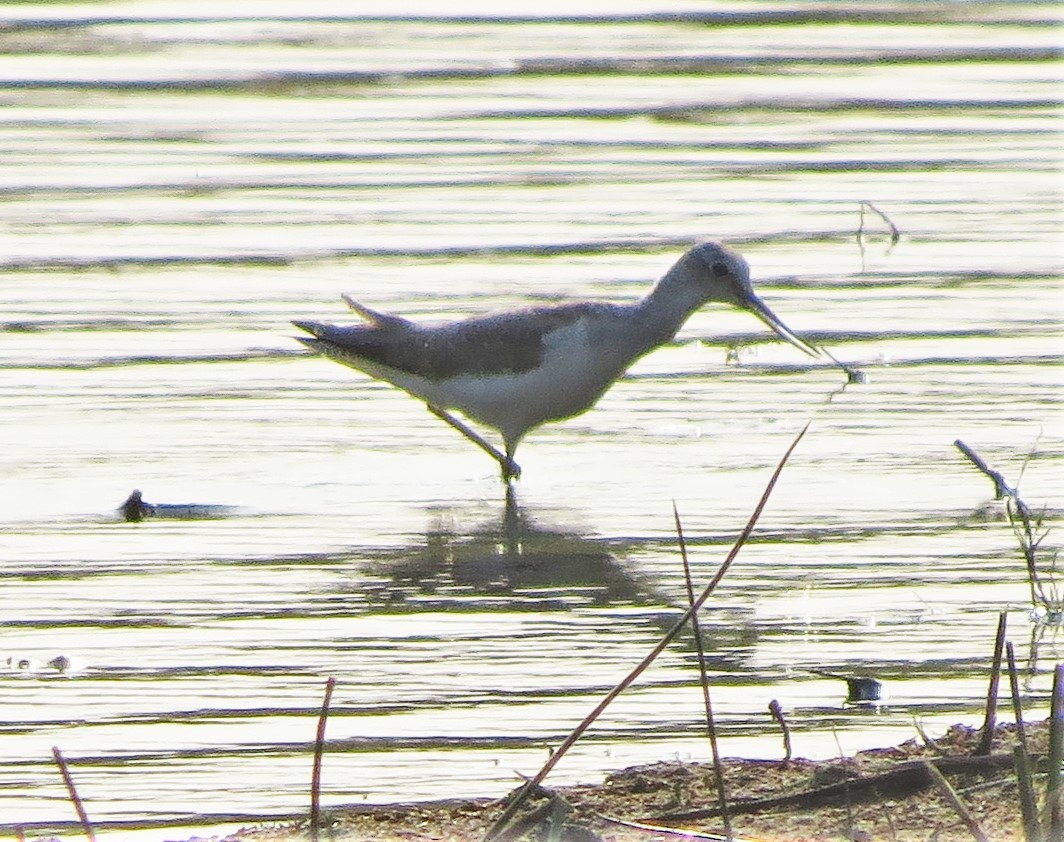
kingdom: Animalia
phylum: Chordata
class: Aves
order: Charadriiformes
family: Scolopacidae
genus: Tringa
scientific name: Tringa nebularia
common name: Common greenshank
